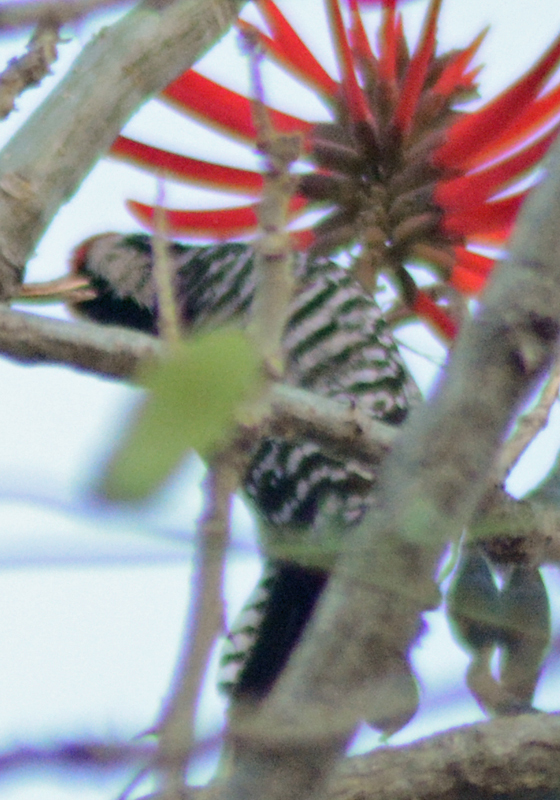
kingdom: Animalia
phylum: Chordata
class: Aves
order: Piciformes
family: Picidae
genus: Dryobates
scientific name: Dryobates scalaris
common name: Ladder-backed woodpecker
